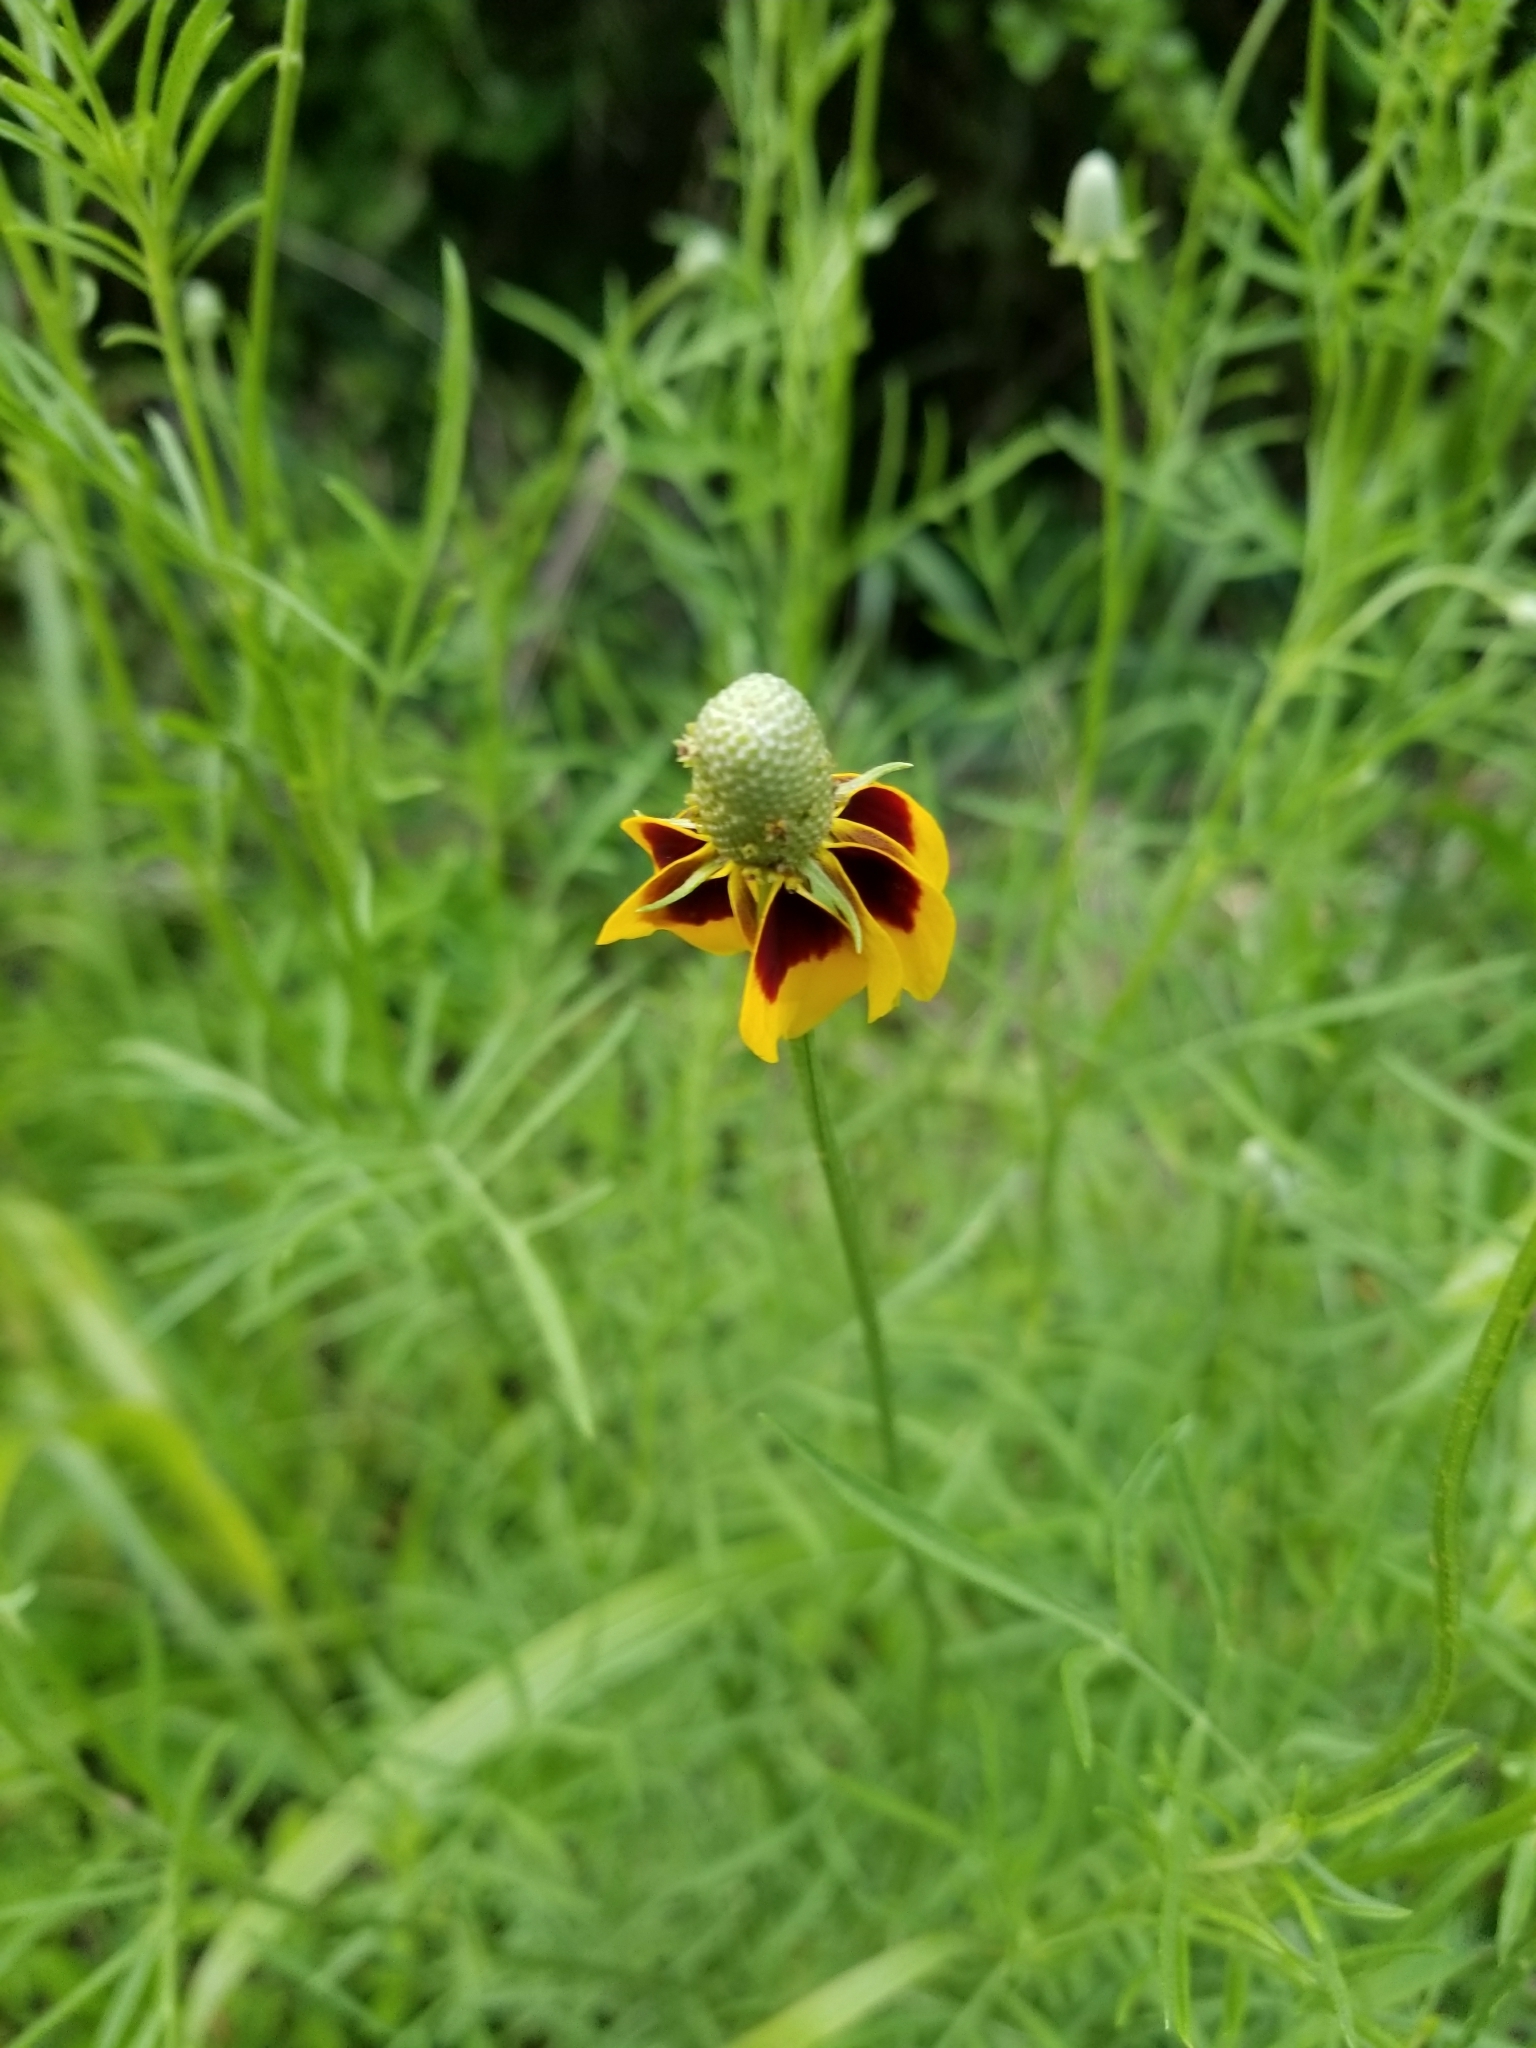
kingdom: Plantae
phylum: Tracheophyta
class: Magnoliopsida
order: Asterales
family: Asteraceae
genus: Ratibida
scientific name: Ratibida columnifera
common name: Prairie coneflower
